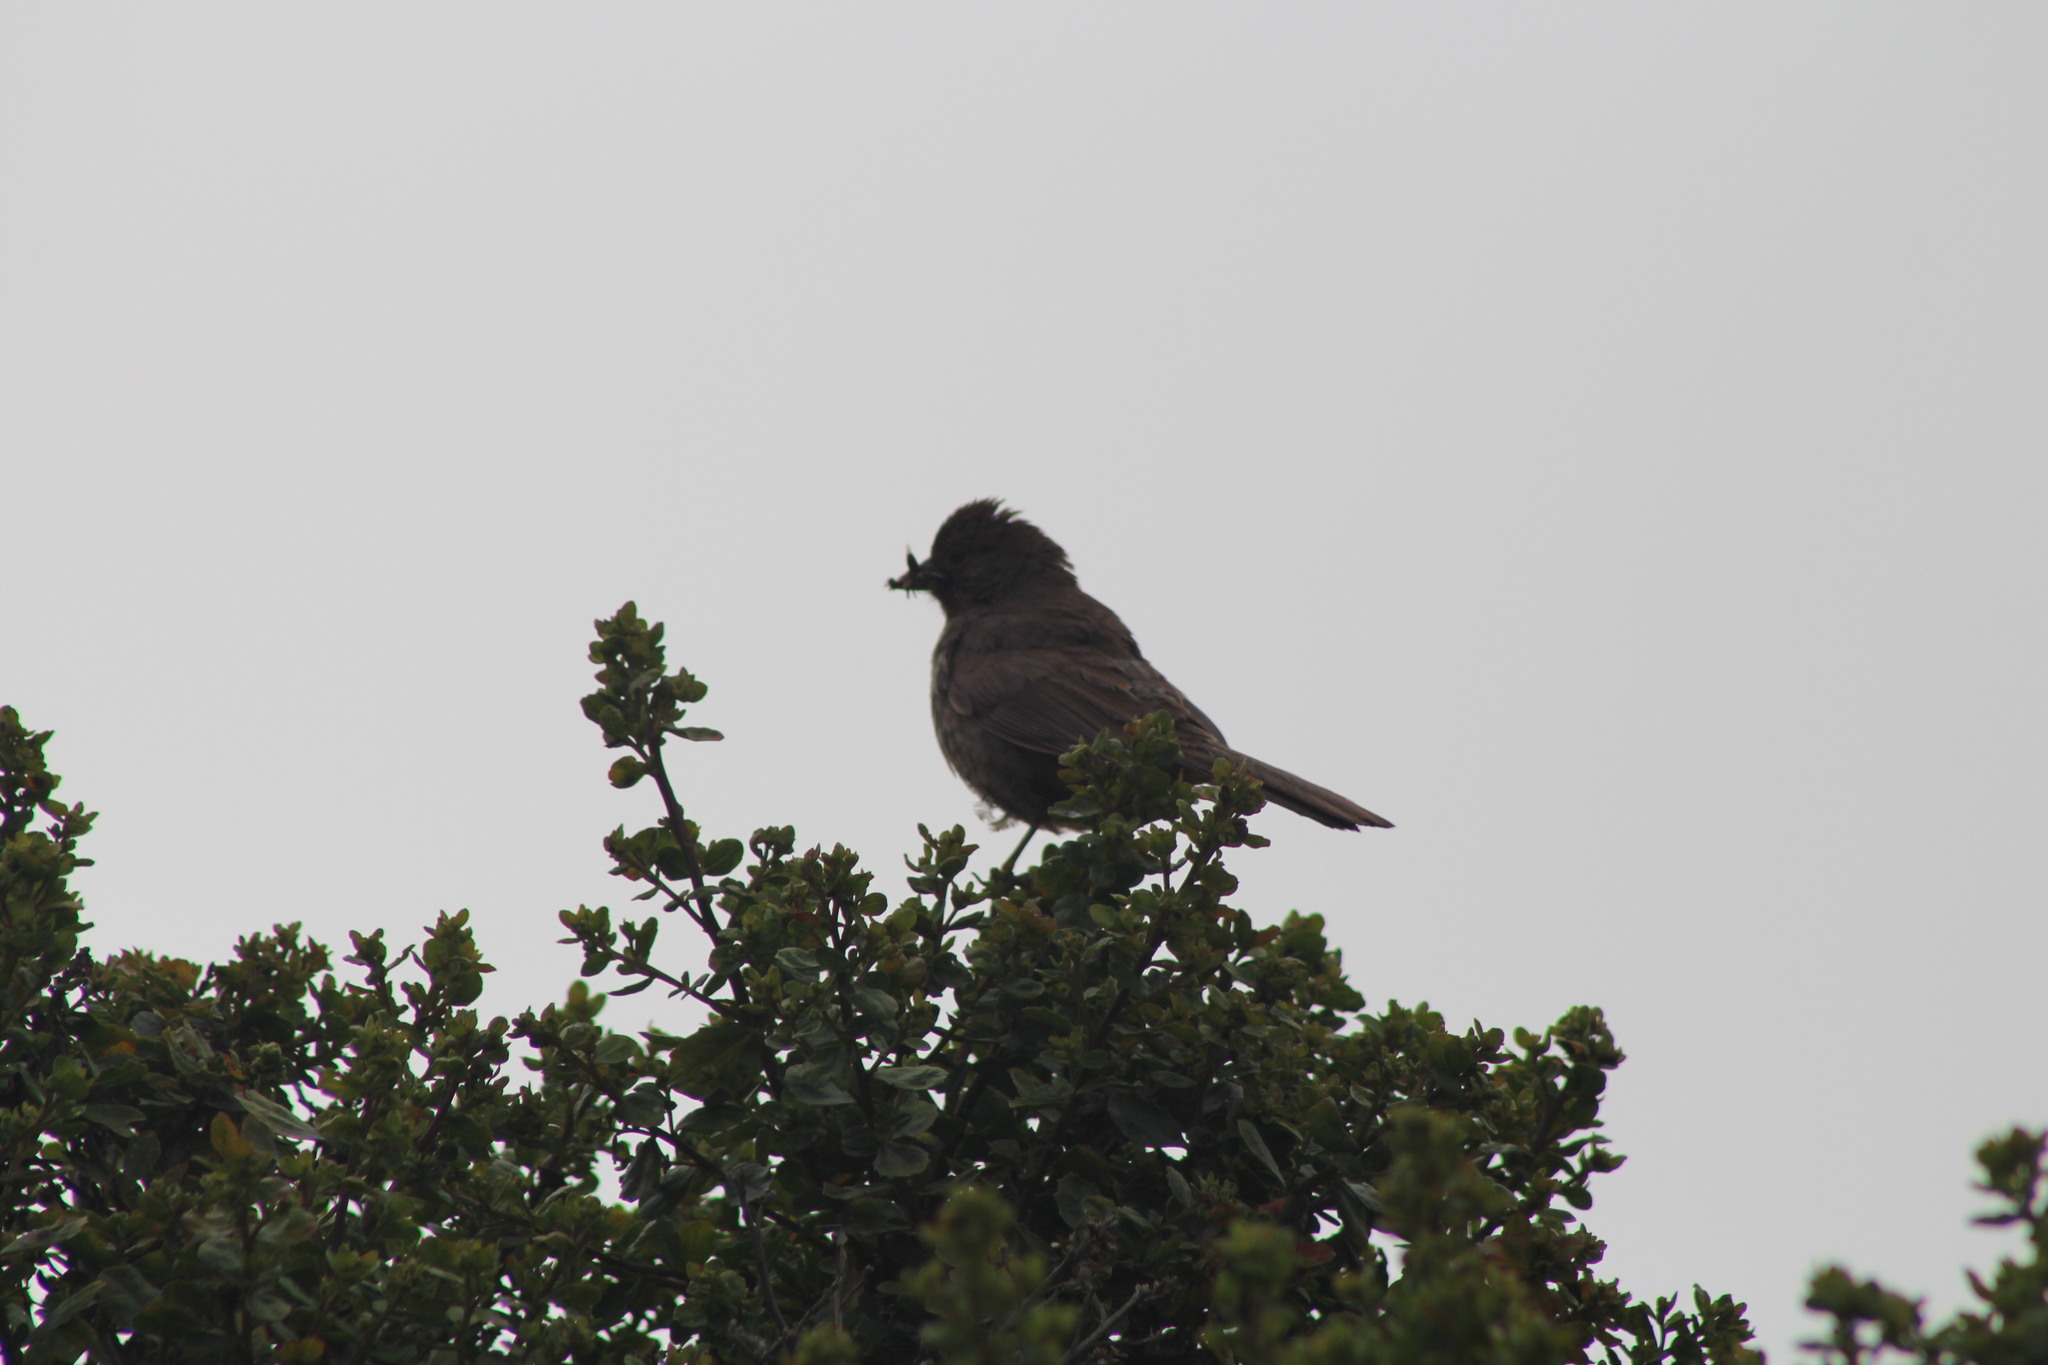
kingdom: Animalia
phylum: Chordata
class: Aves
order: Passeriformes
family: Passerellidae
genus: Melozone
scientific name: Melozone crissalis
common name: California towhee
